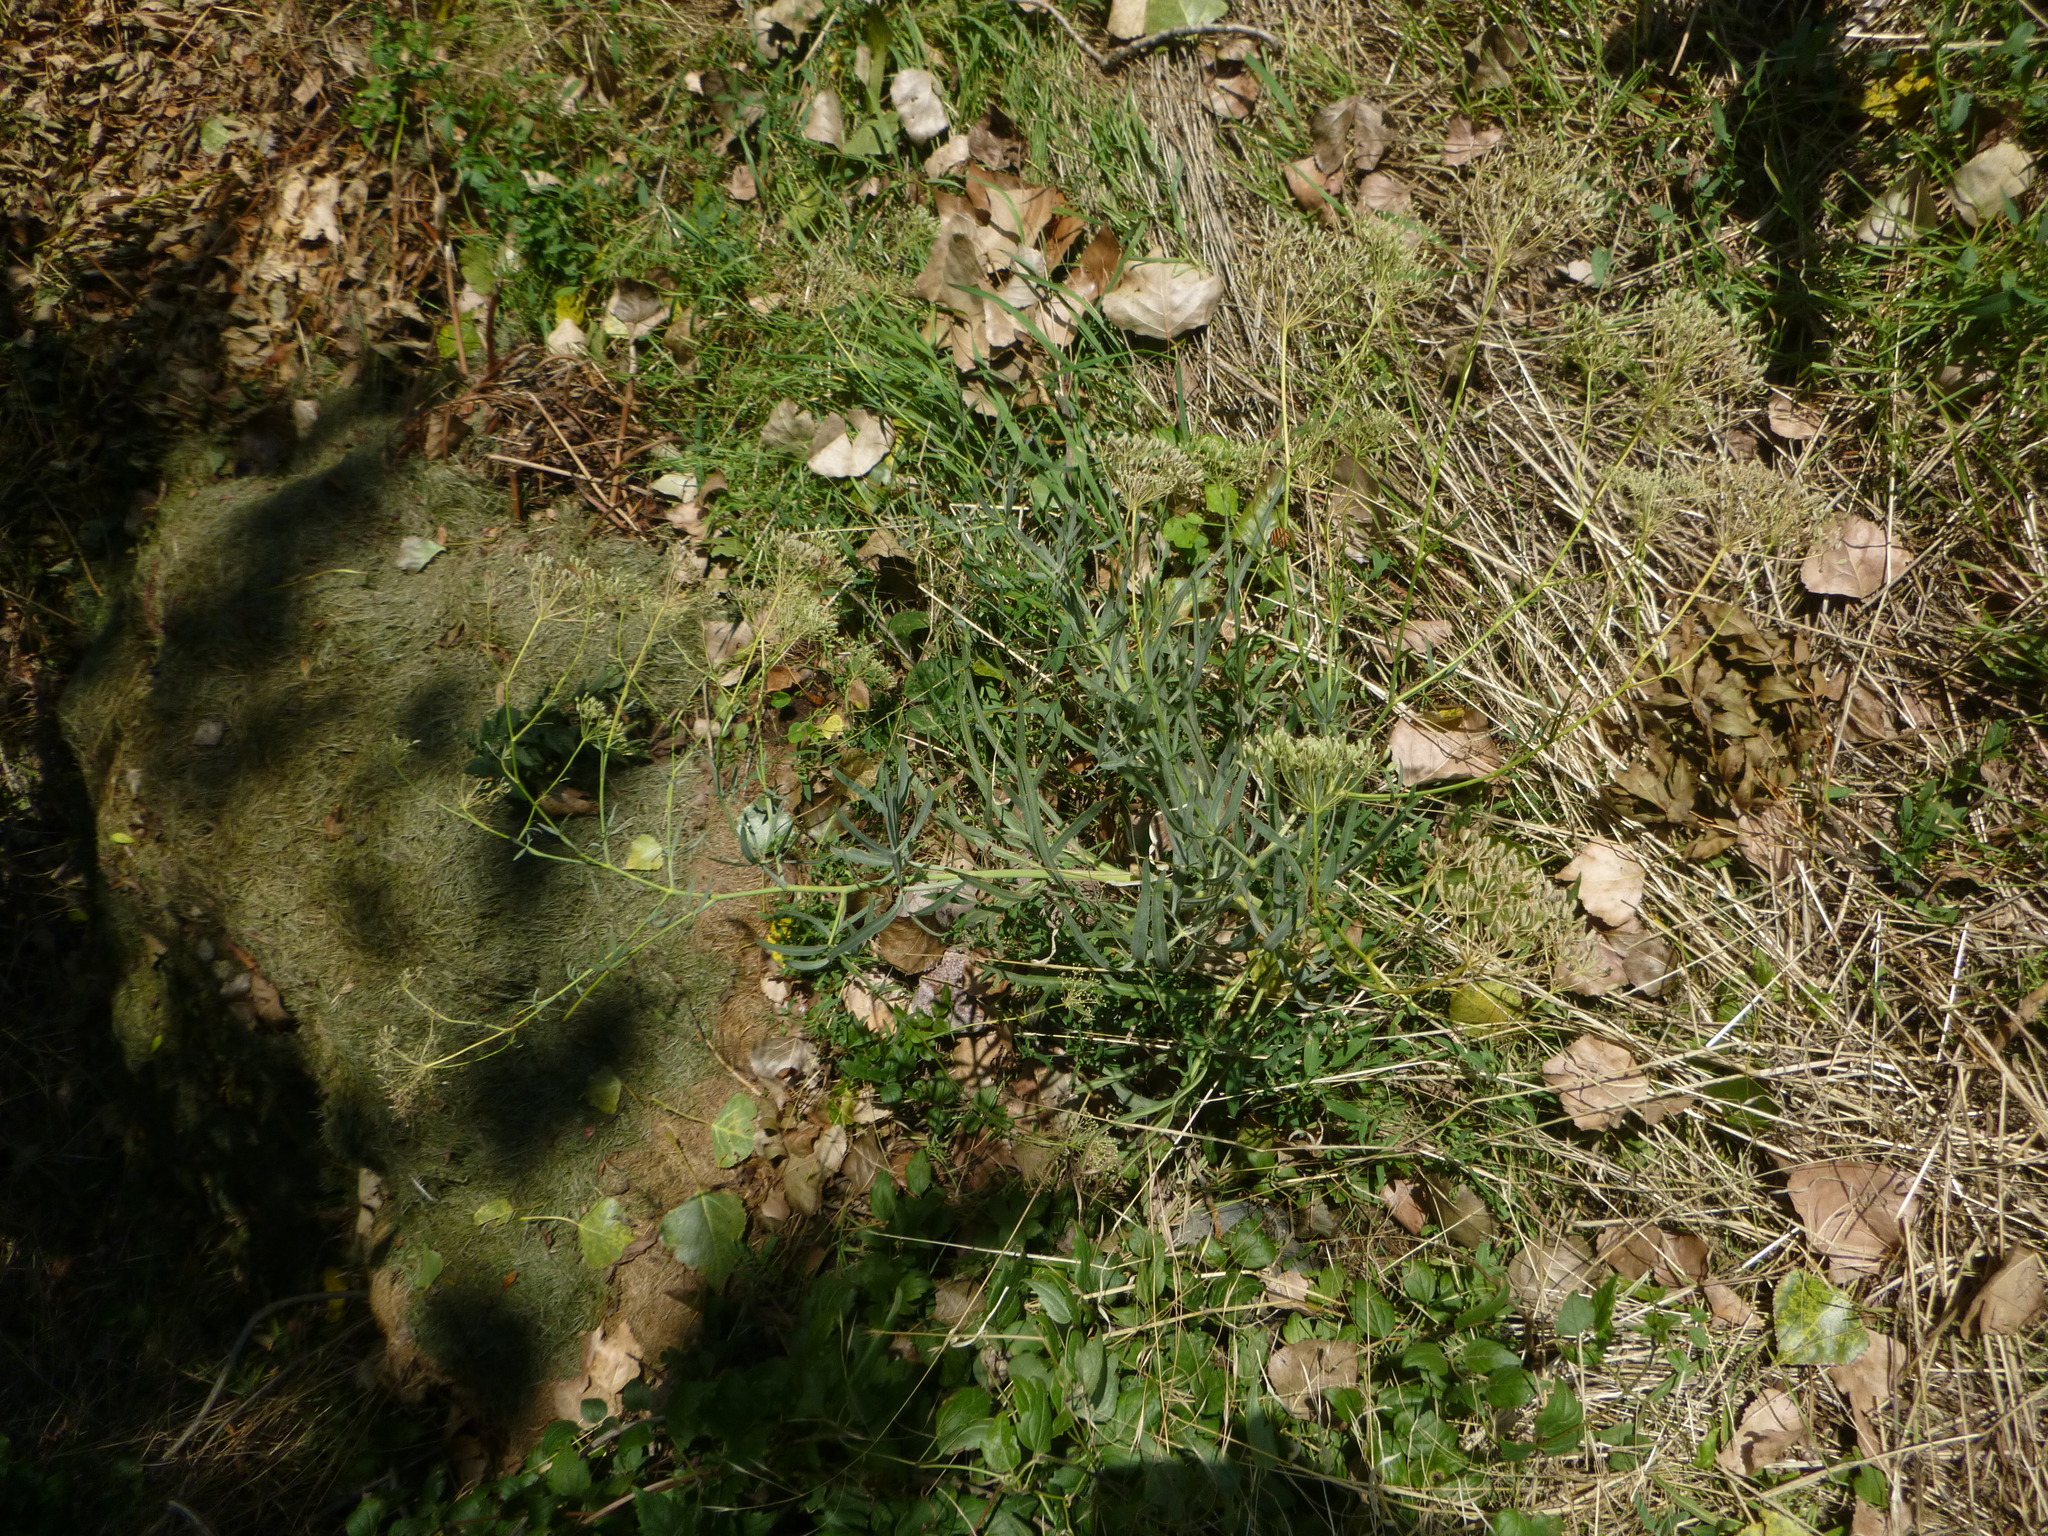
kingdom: Plantae
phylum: Tracheophyta
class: Magnoliopsida
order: Apiales
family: Apiaceae
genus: Falcaria
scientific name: Falcaria vulgaris
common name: Longleaf
